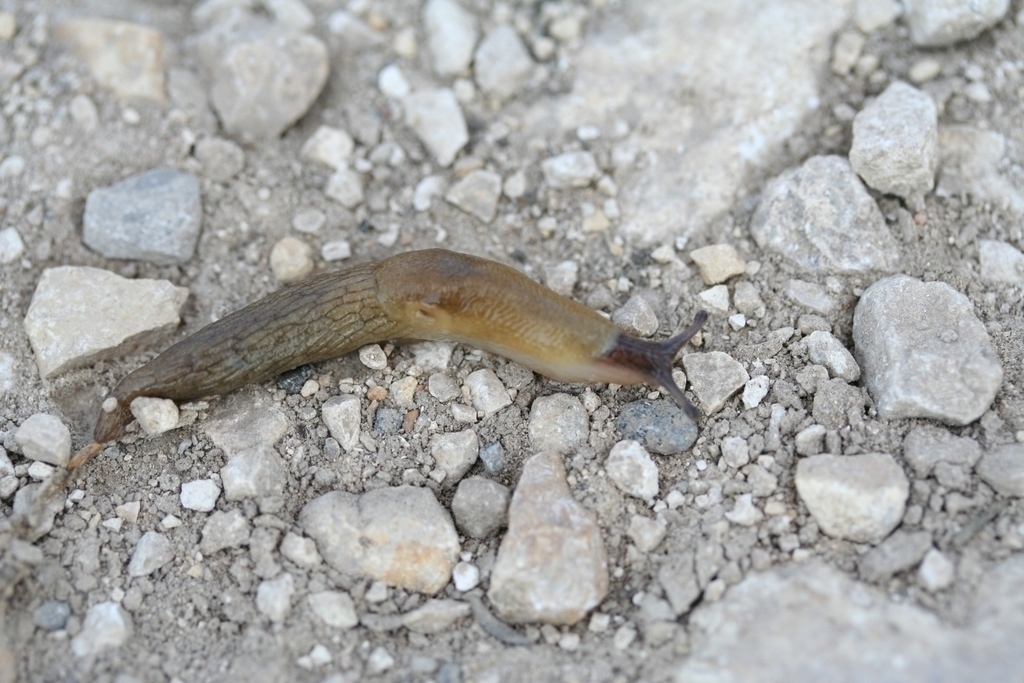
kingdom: Animalia
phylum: Mollusca
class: Gastropoda
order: Stylommatophora
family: Agriolimacidae
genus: Deroceras
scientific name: Deroceras caucasicum
